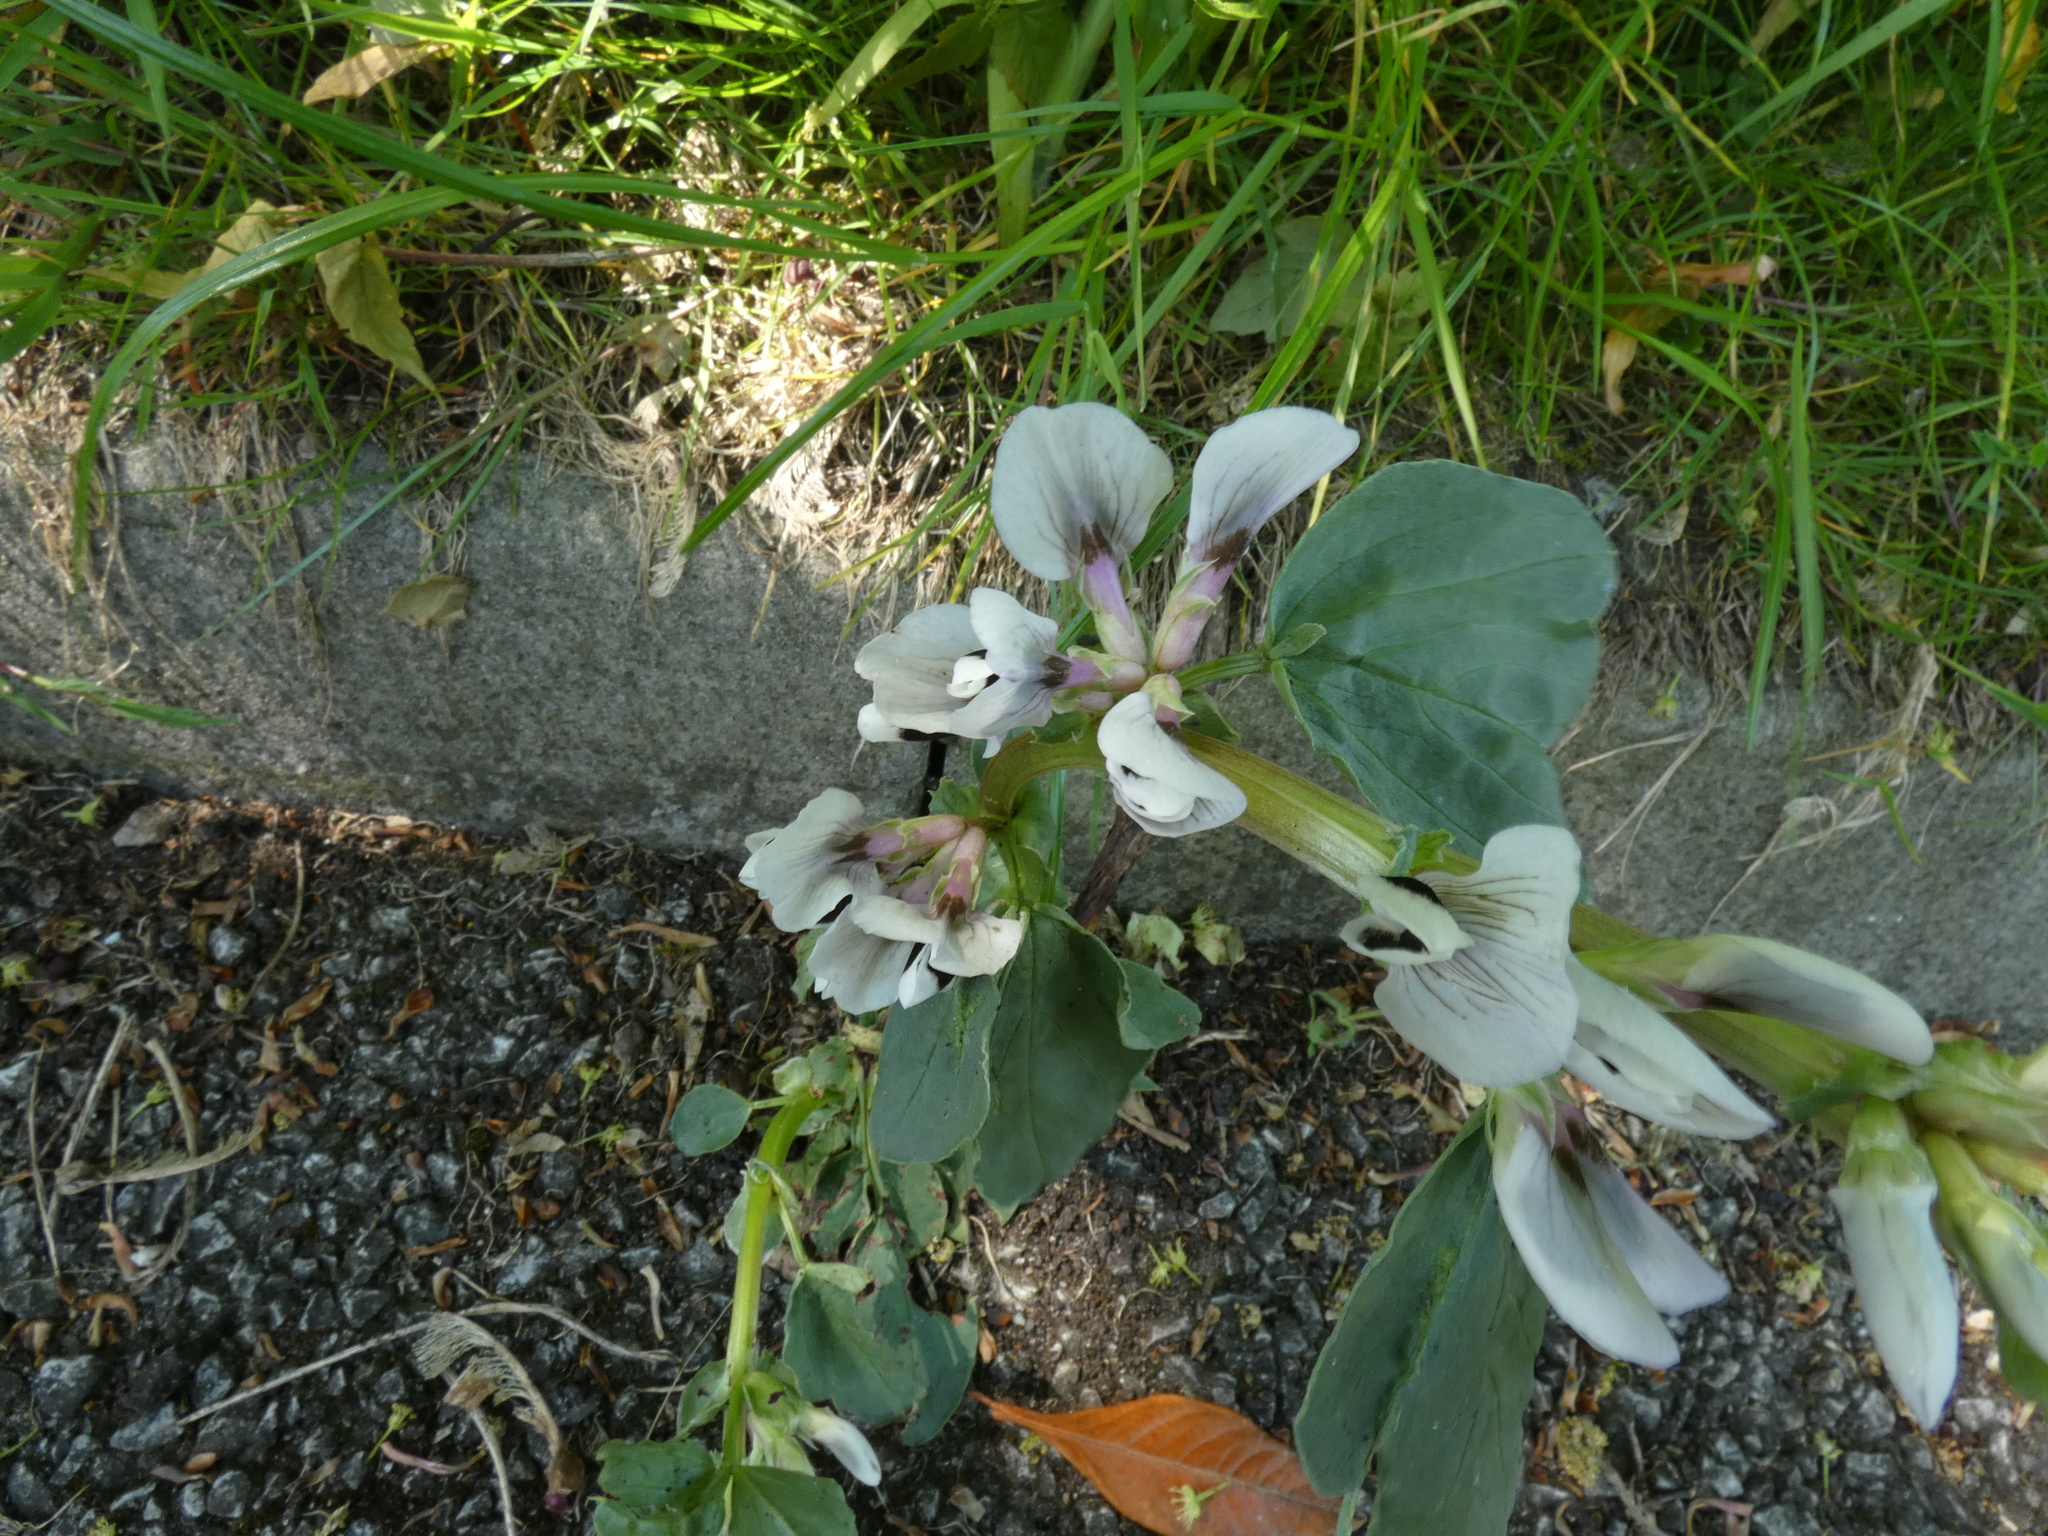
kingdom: Plantae
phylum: Tracheophyta
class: Magnoliopsida
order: Fabales
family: Fabaceae
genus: Vicia
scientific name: Vicia faba
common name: Broad bean
